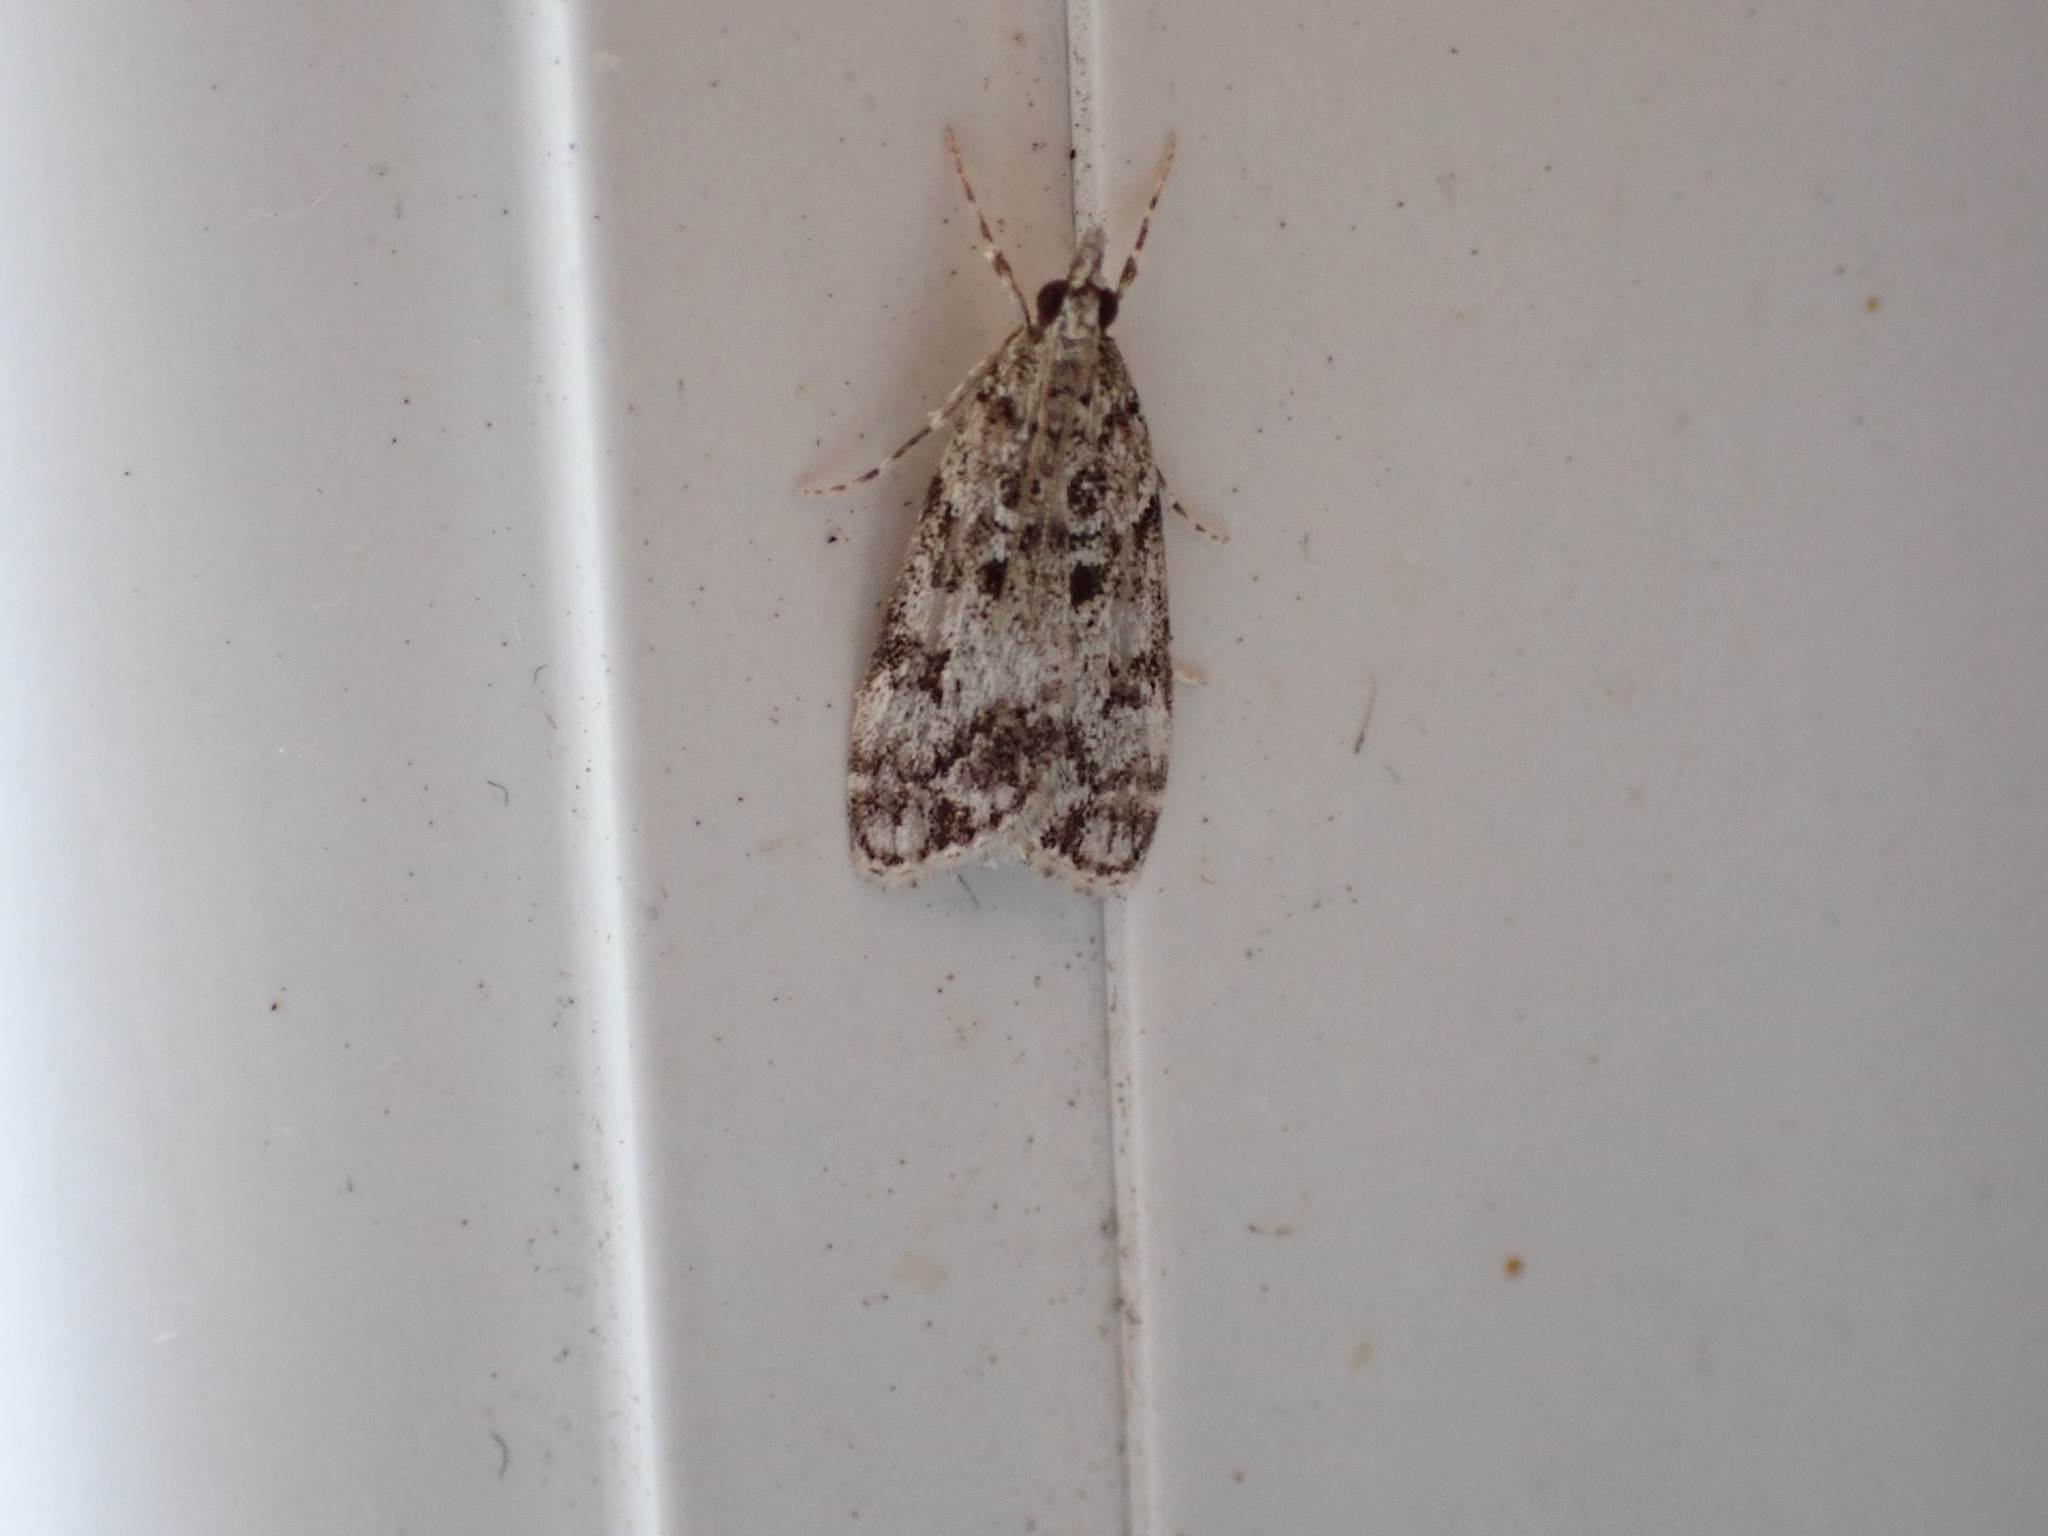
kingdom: Animalia
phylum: Arthropoda
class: Insecta
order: Lepidoptera
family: Crambidae
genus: Eudonia
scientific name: Eudonia lacustrata
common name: Little grey
